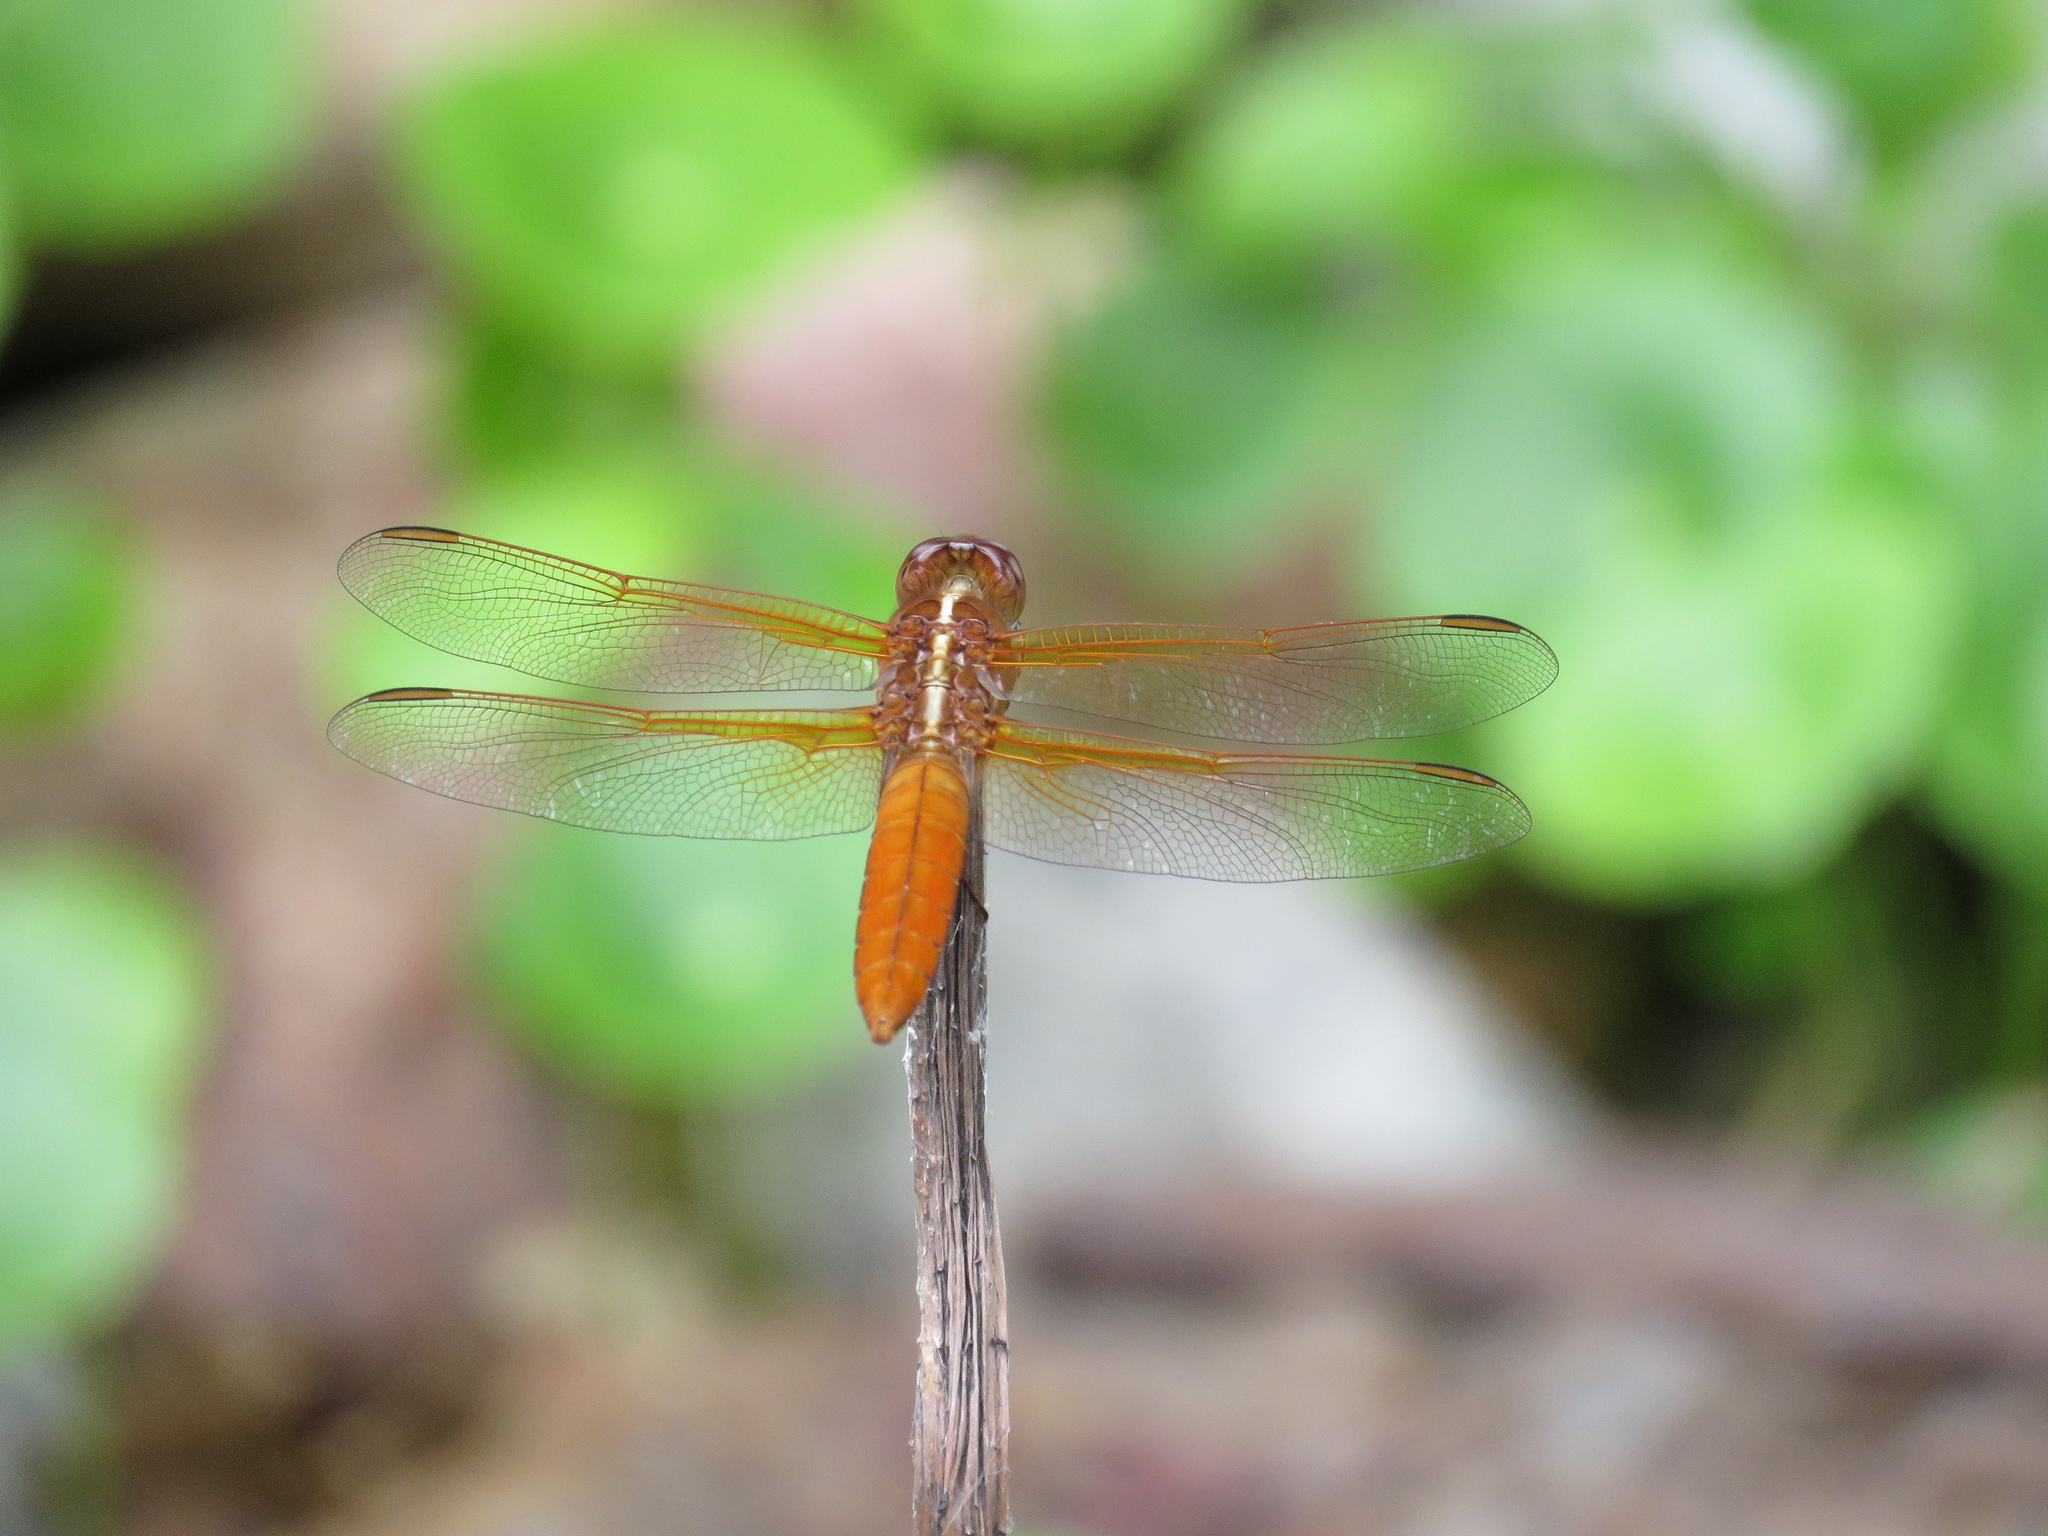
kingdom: Animalia
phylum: Arthropoda
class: Insecta
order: Odonata
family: Libellulidae
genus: Libellula
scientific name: Libellula croceipennis
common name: Neon skimmer
